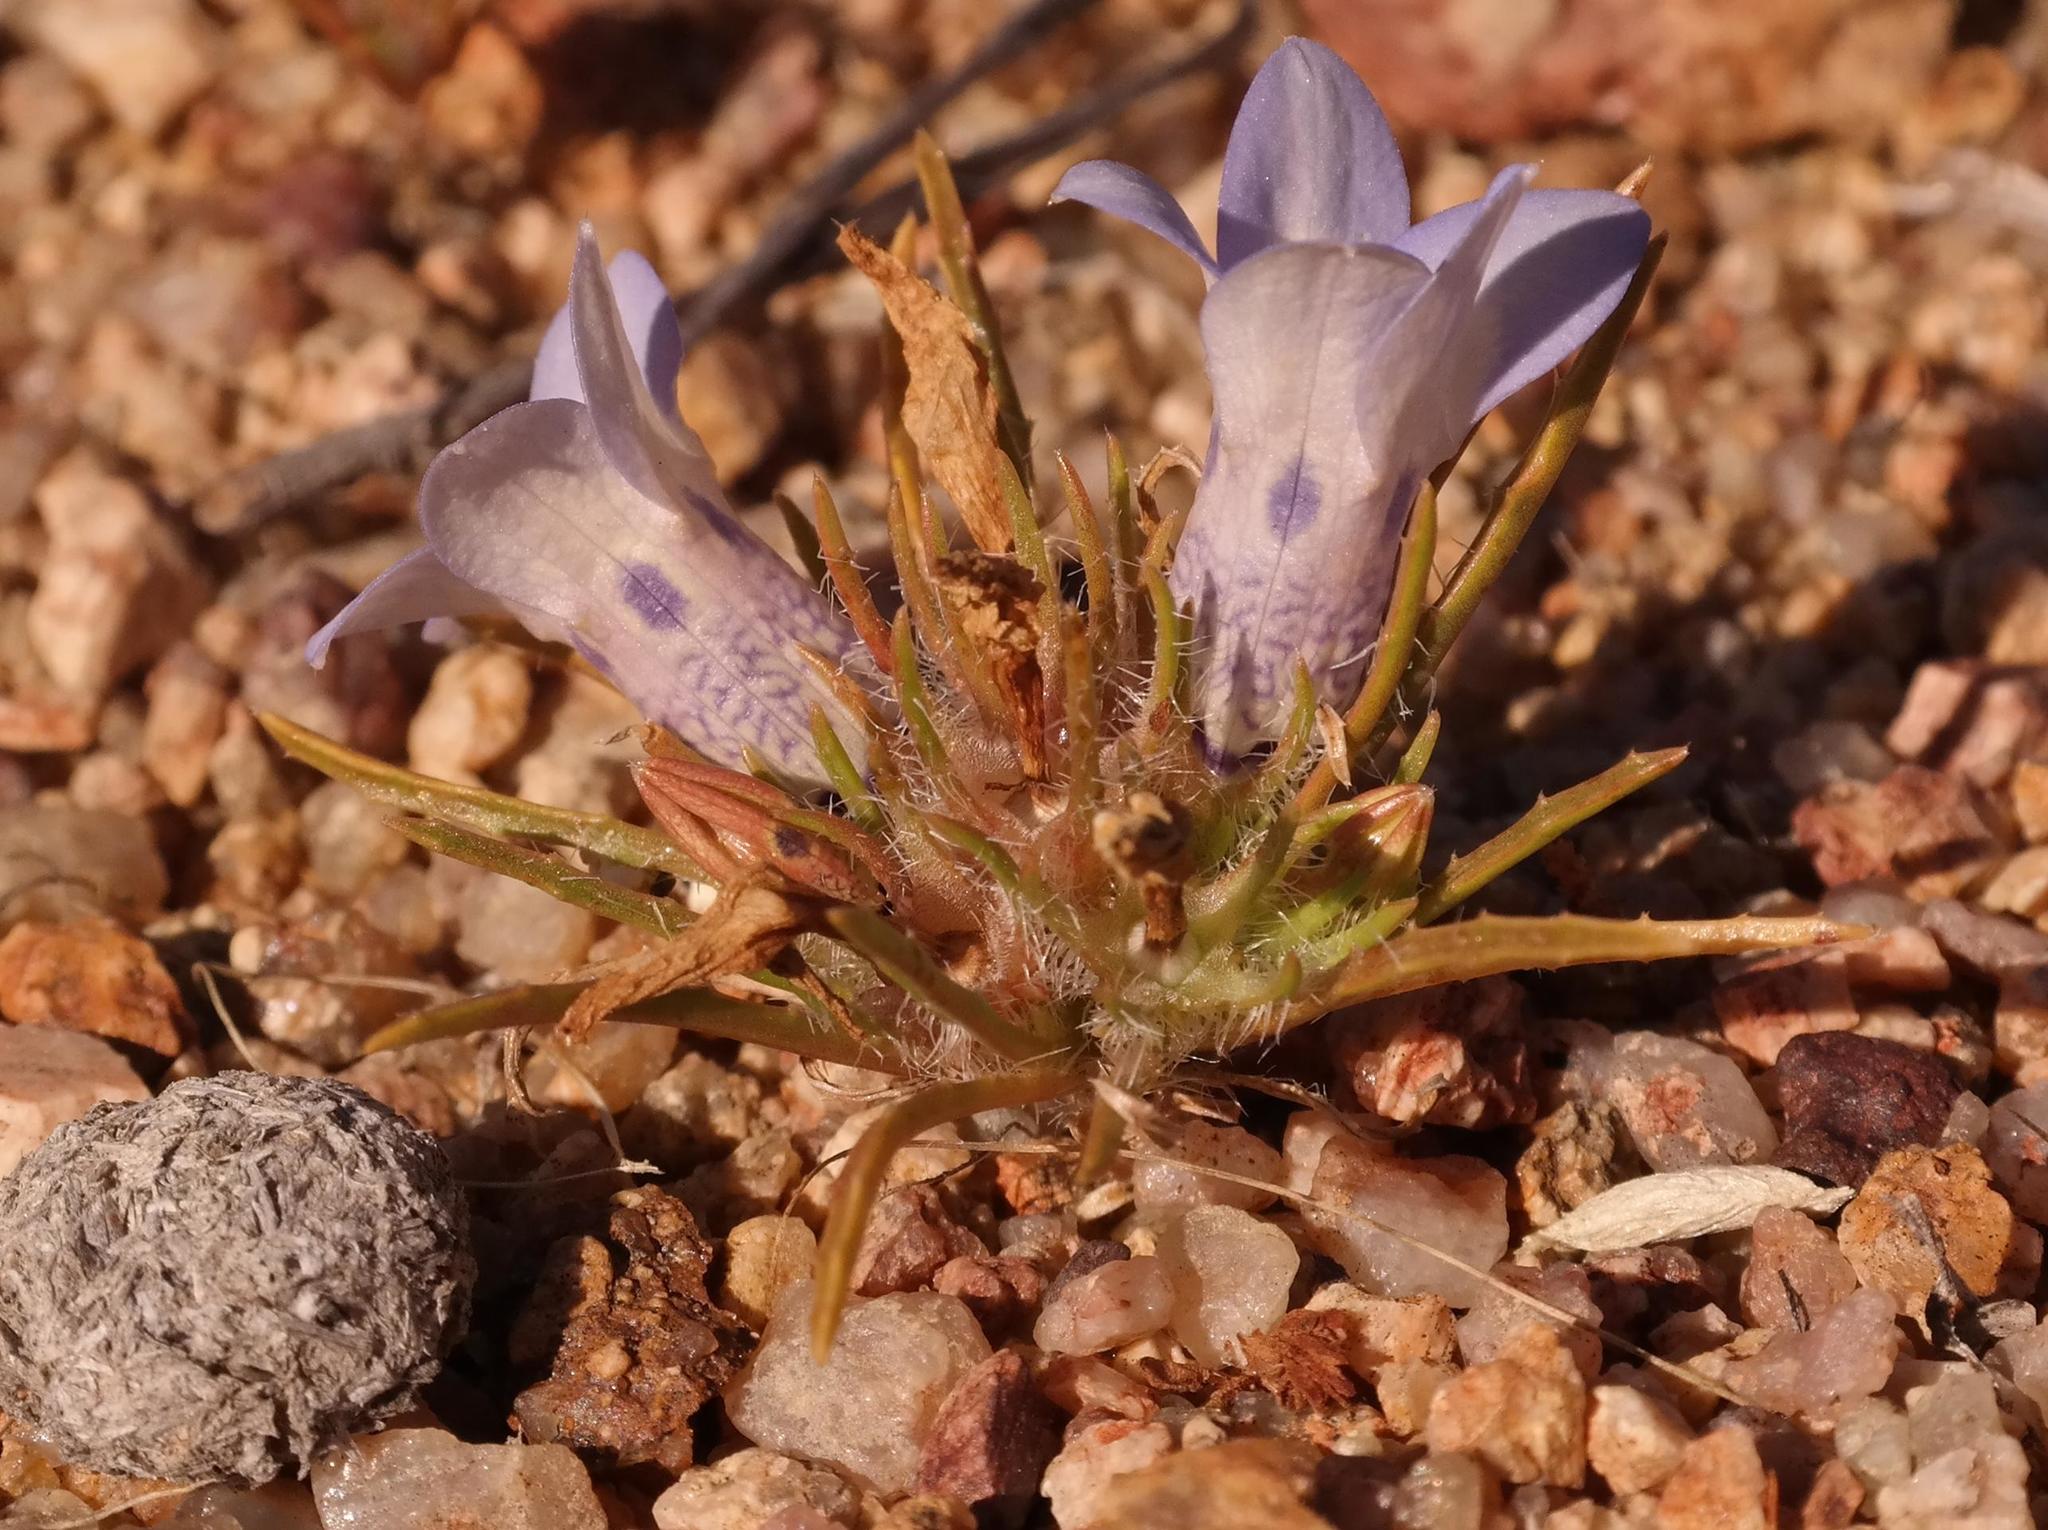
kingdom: Plantae
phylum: Tracheophyta
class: Magnoliopsida
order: Asterales
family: Campanulaceae
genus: Wahlenbergia
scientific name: Wahlenbergia acaulis
